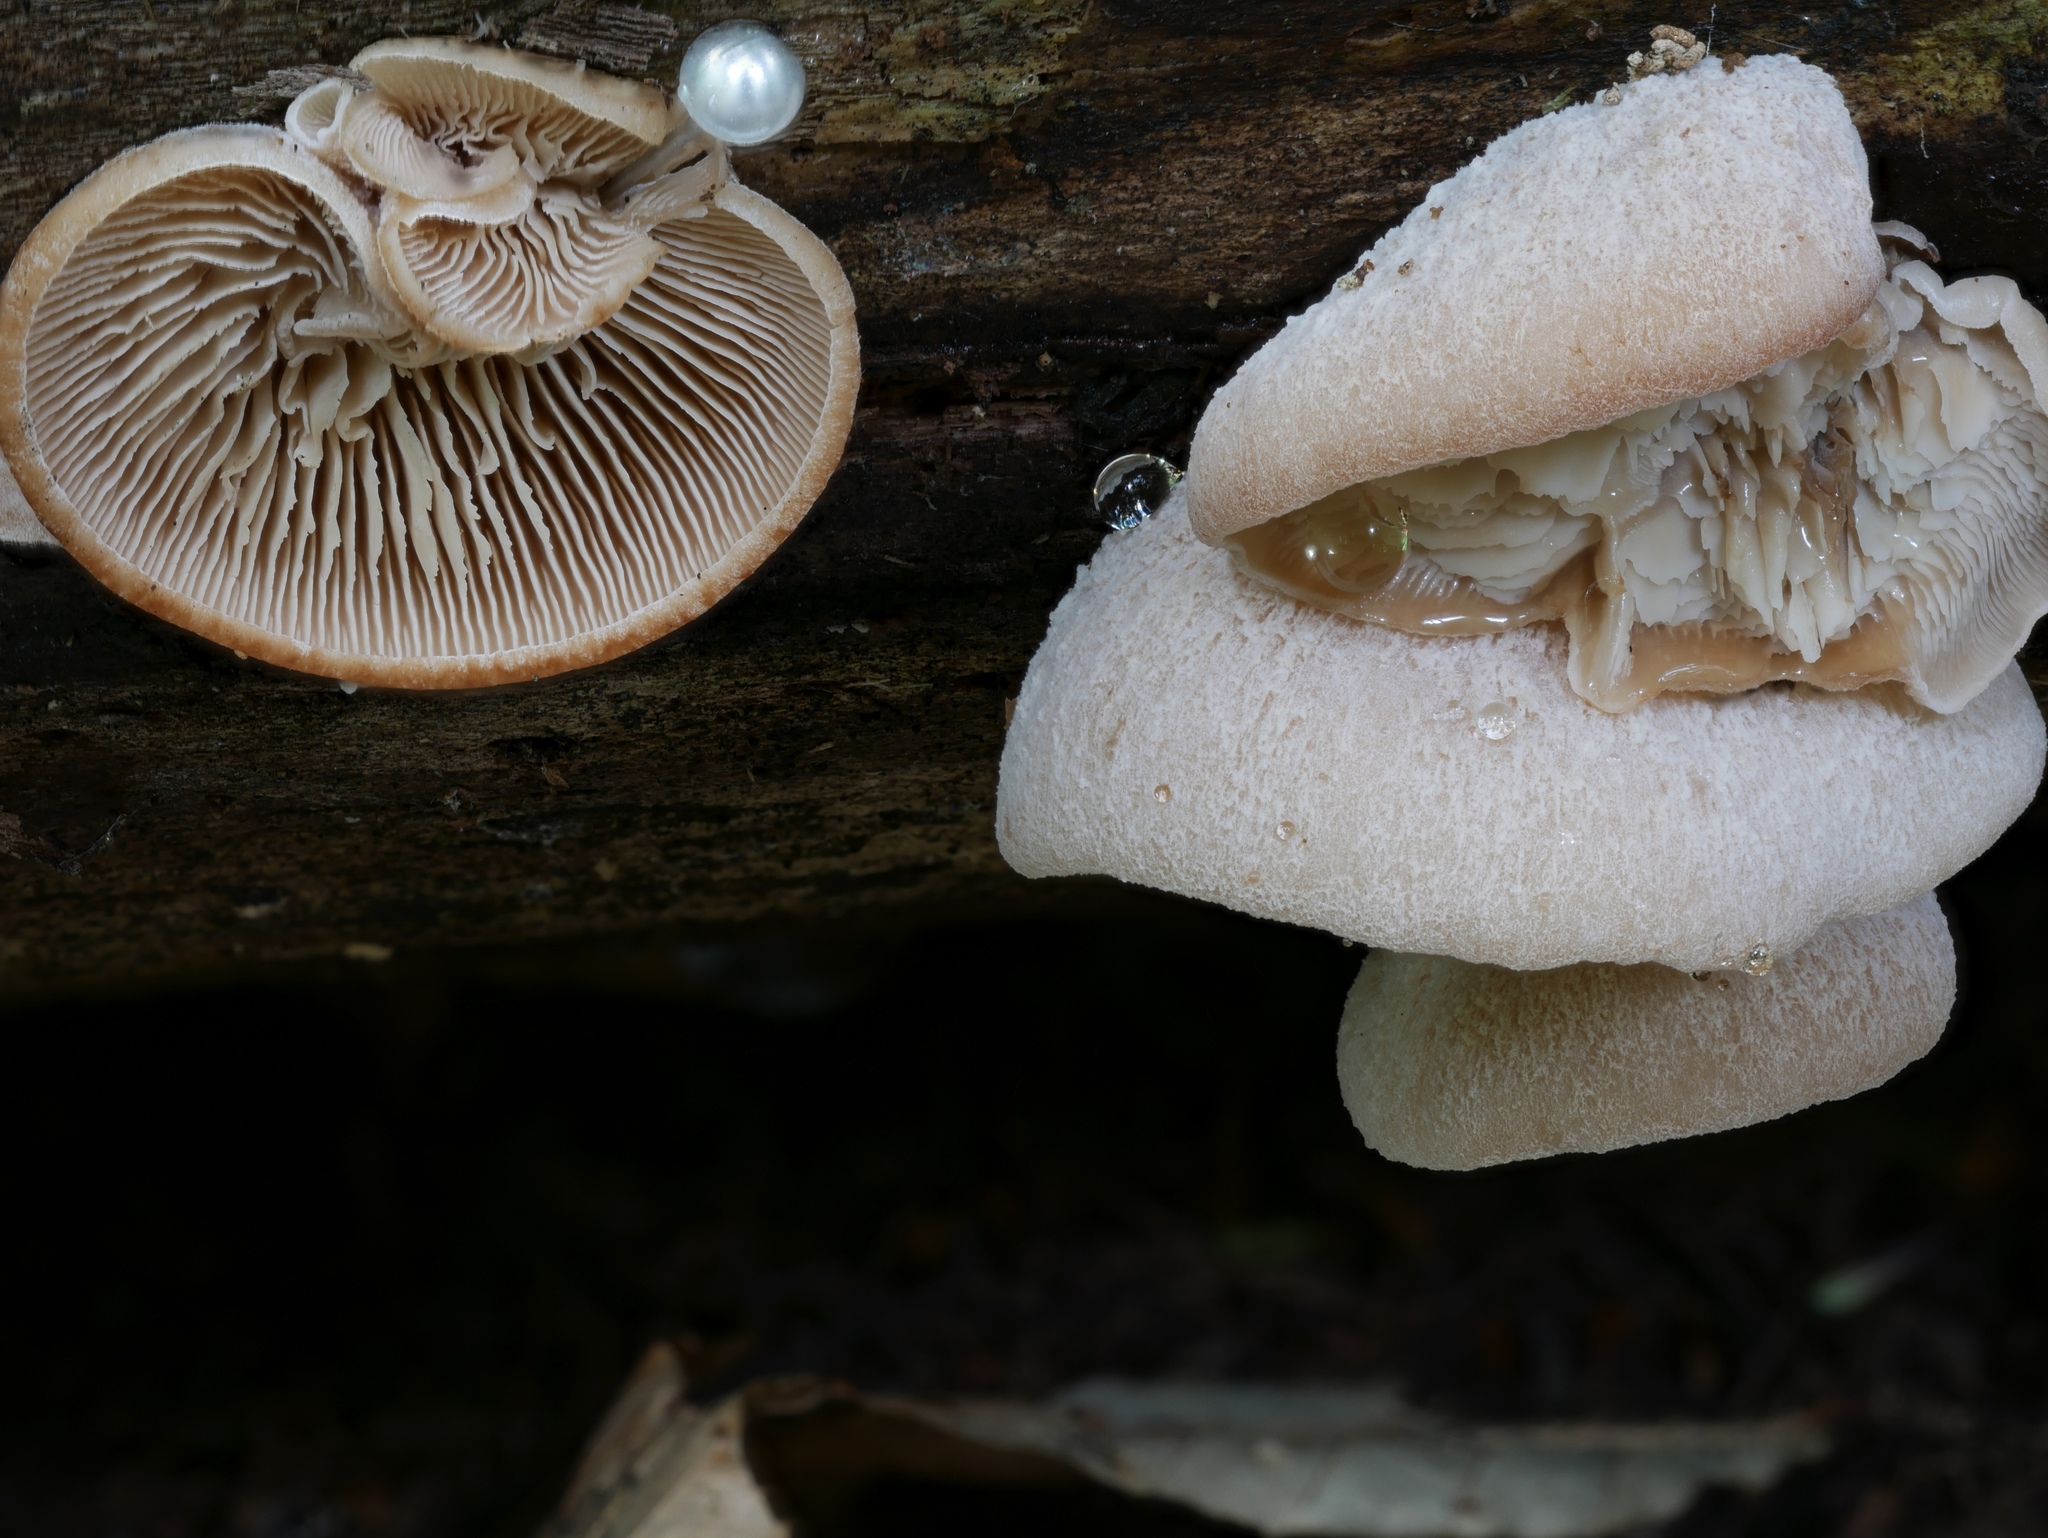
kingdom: Fungi
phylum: Basidiomycota
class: Agaricomycetes
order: Russulales
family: Auriscalpiaceae
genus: Lentinellus
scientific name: Lentinellus ursinus
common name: Bear lentinus
